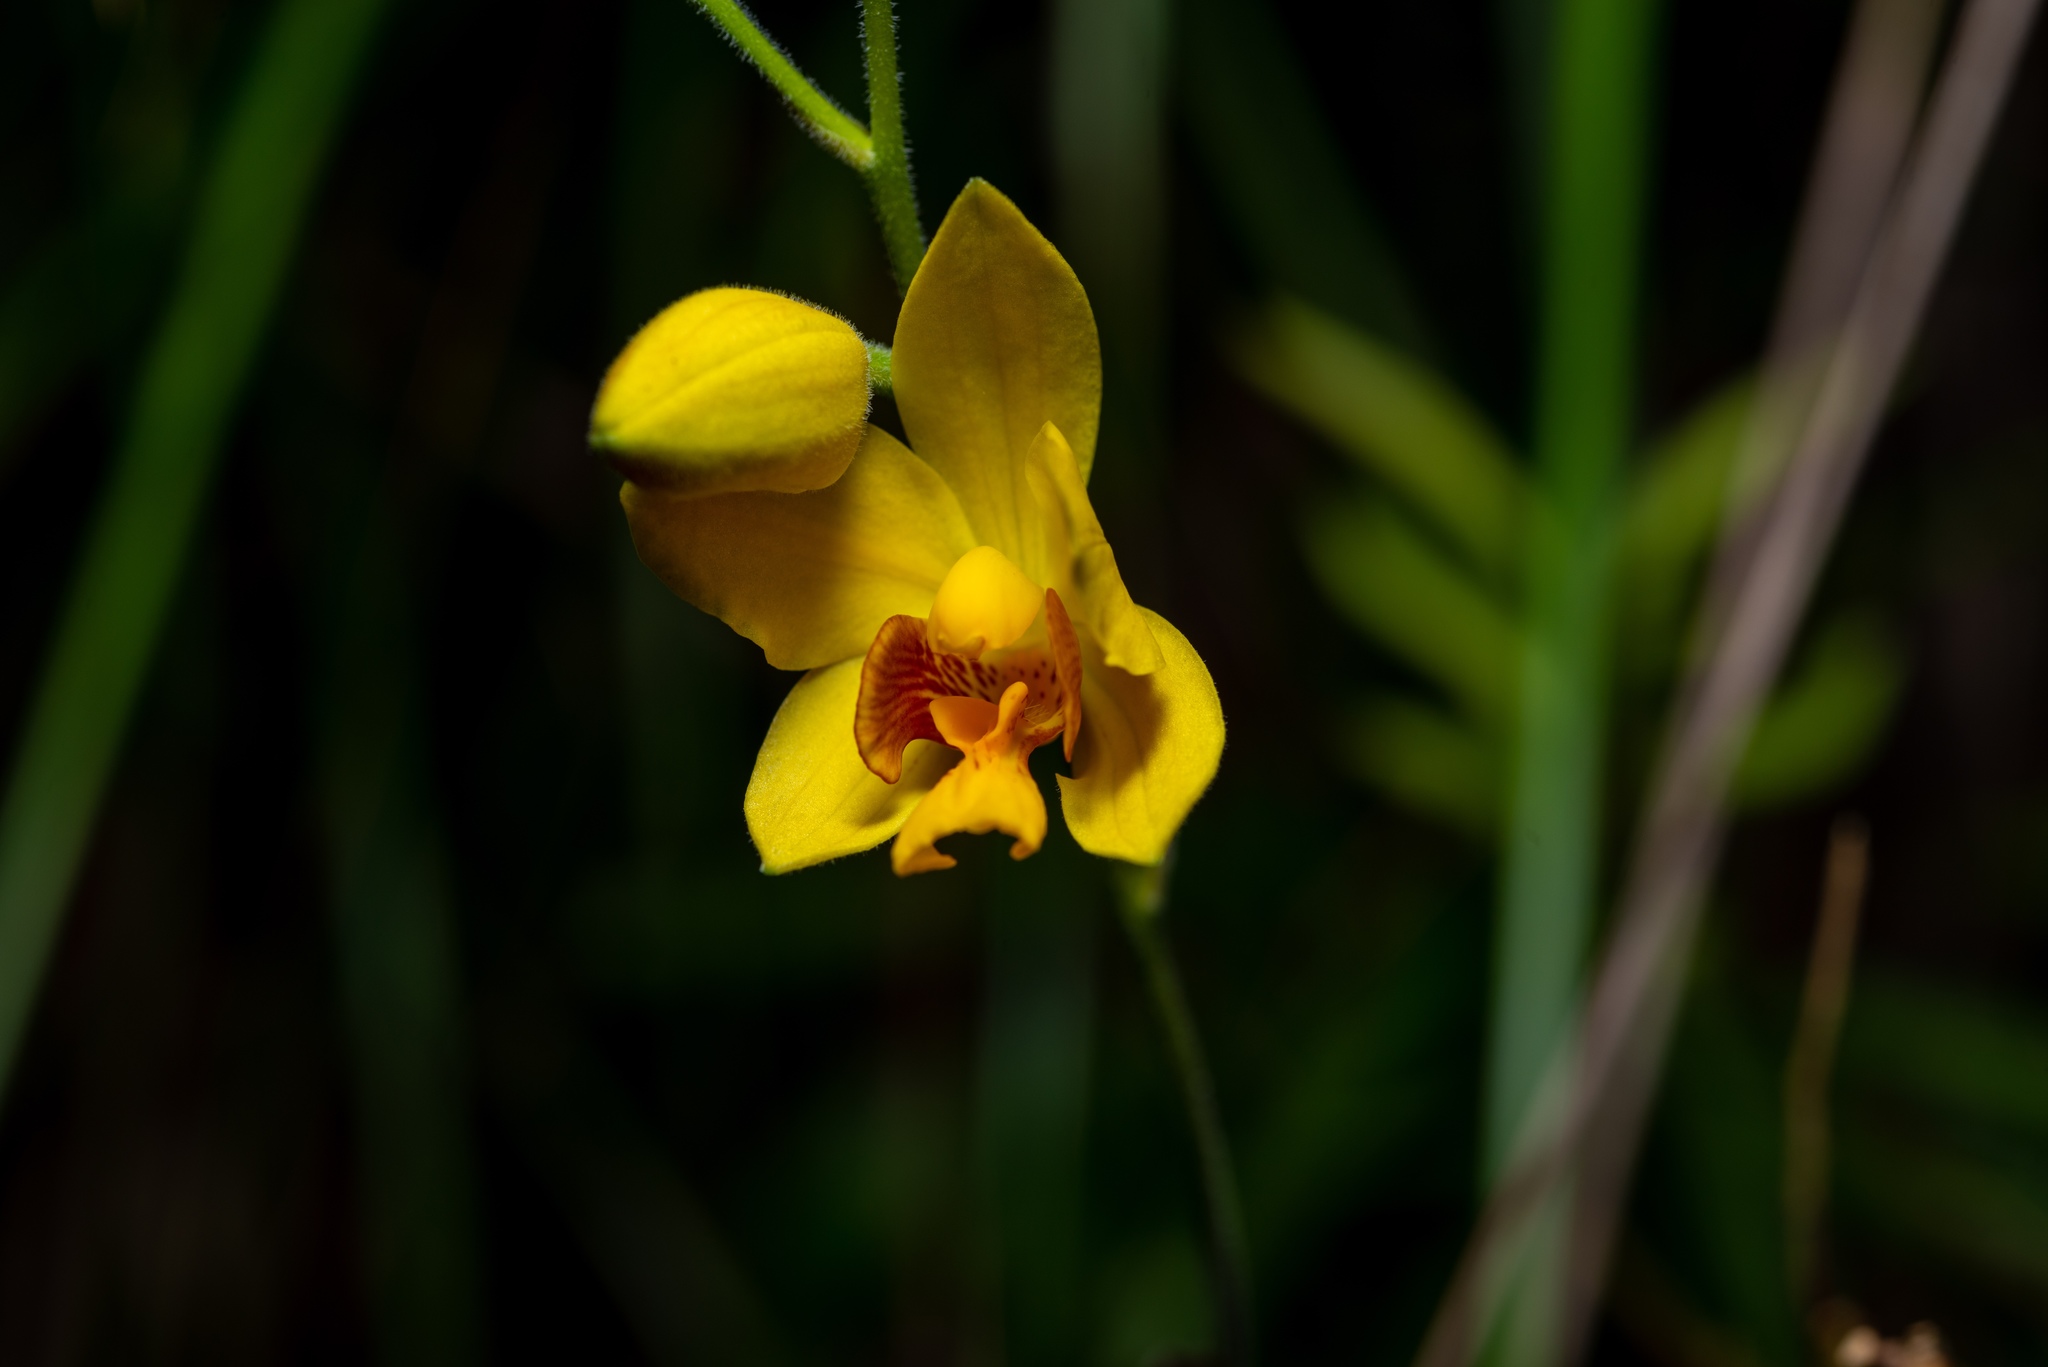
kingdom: Plantae
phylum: Tracheophyta
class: Liliopsida
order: Asparagales
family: Orchidaceae
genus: Spathoglottis
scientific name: Spathoglottis pubescens
